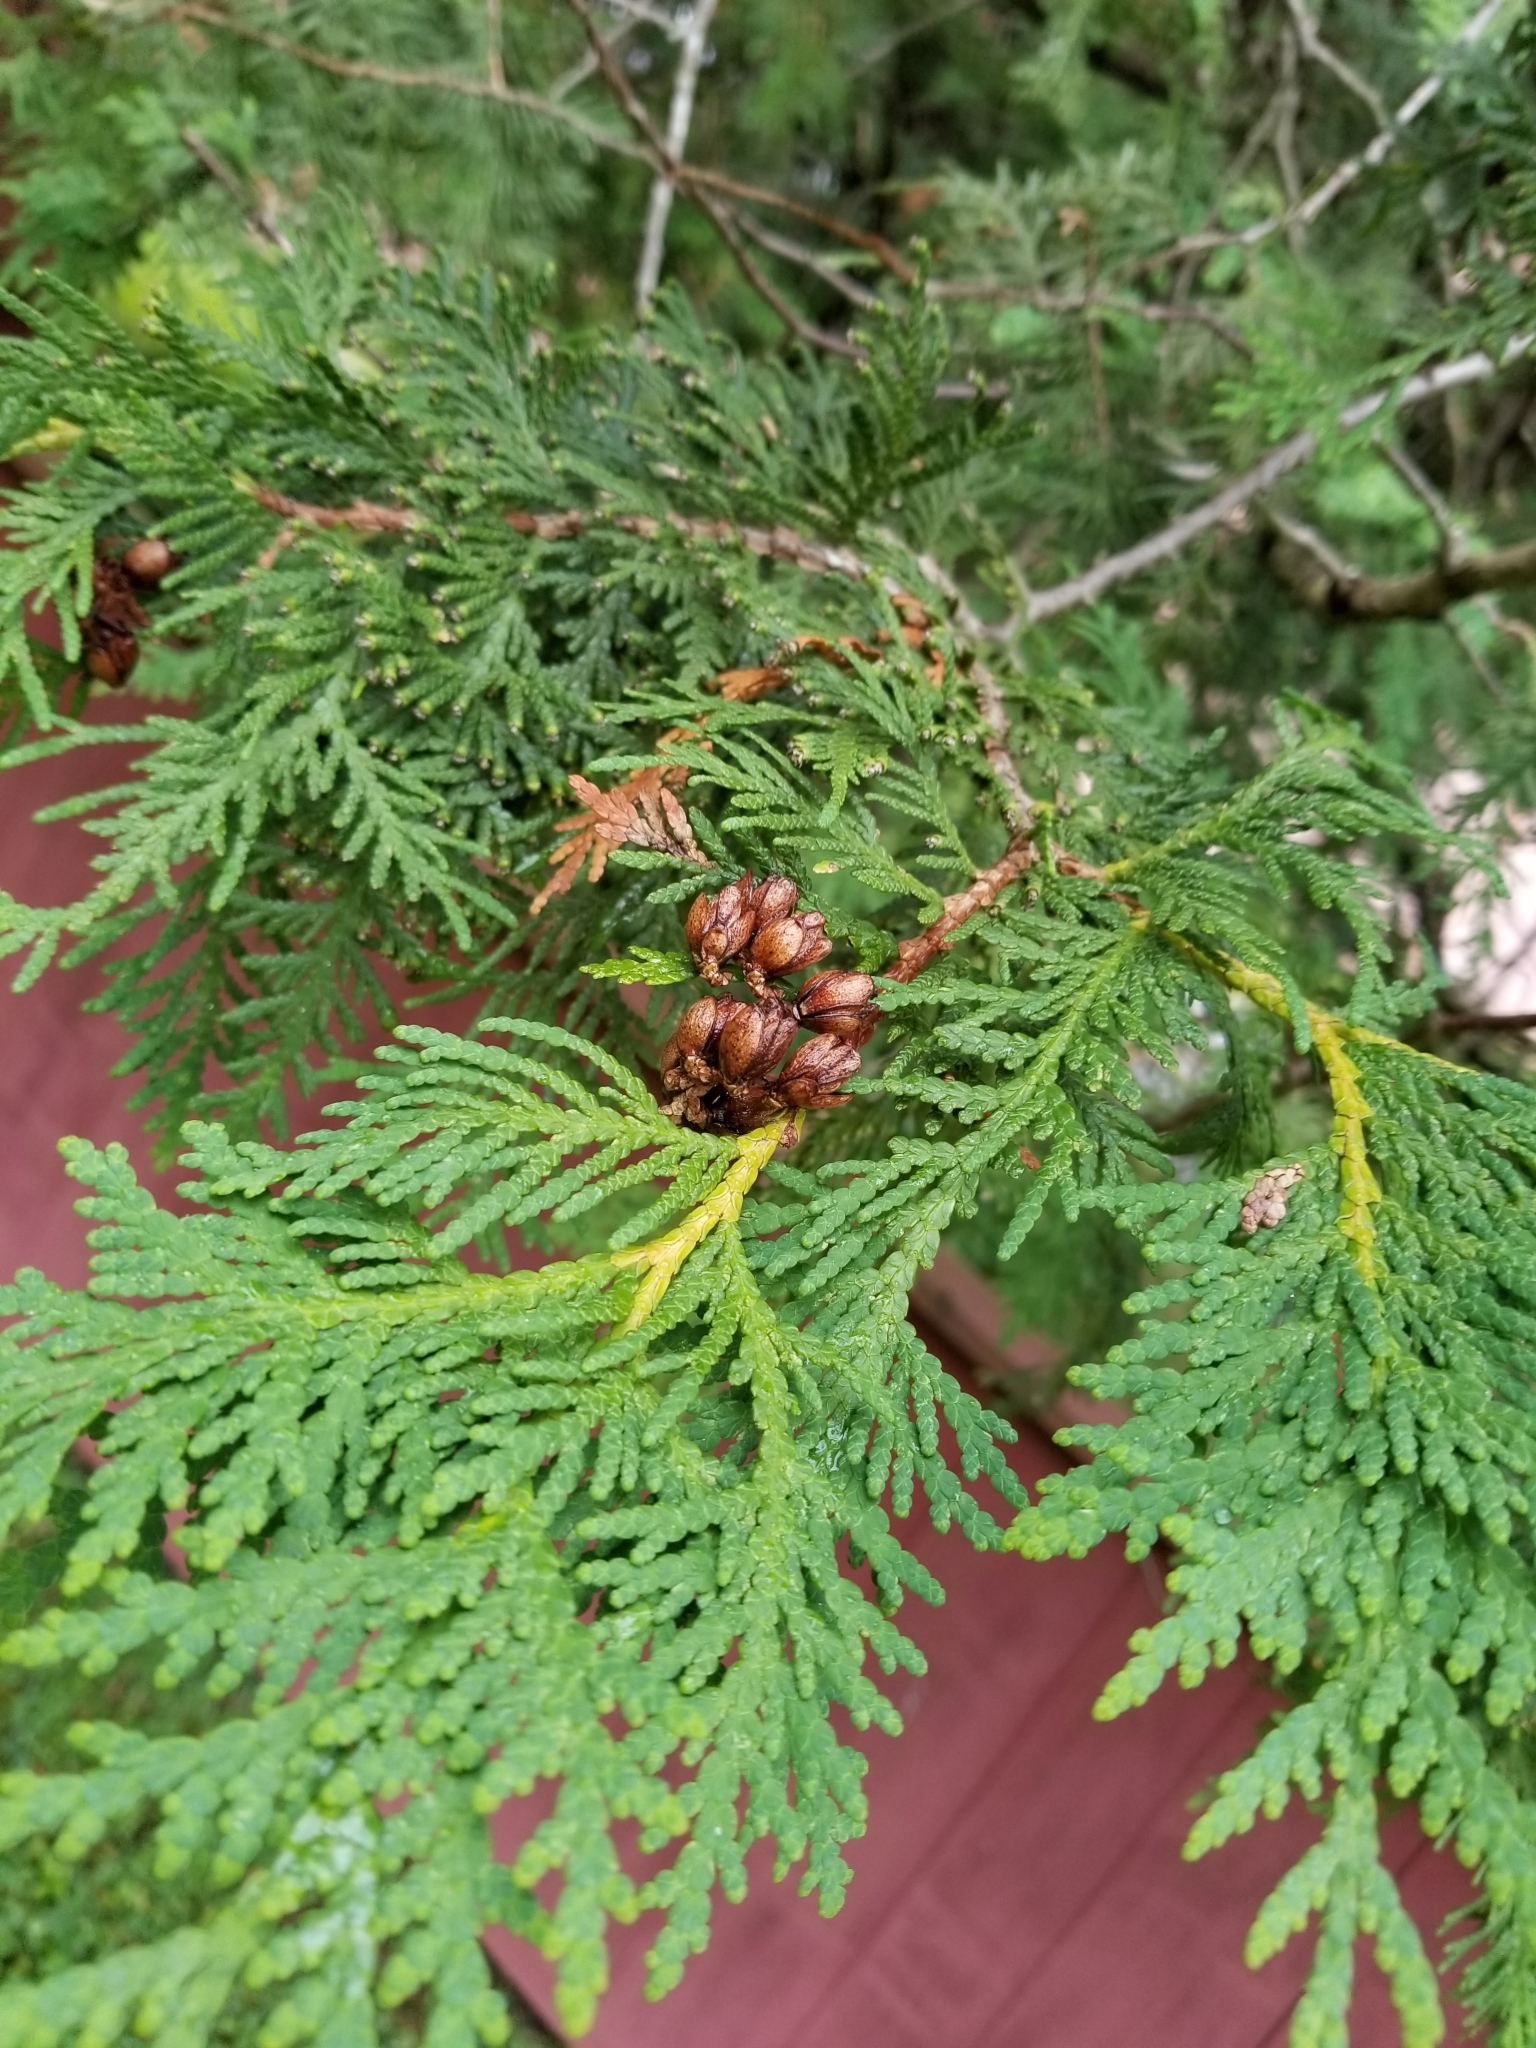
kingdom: Plantae
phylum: Tracheophyta
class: Pinopsida
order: Pinales
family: Cupressaceae
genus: Thuja
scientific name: Thuja occidentalis
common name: Northern white-cedar
